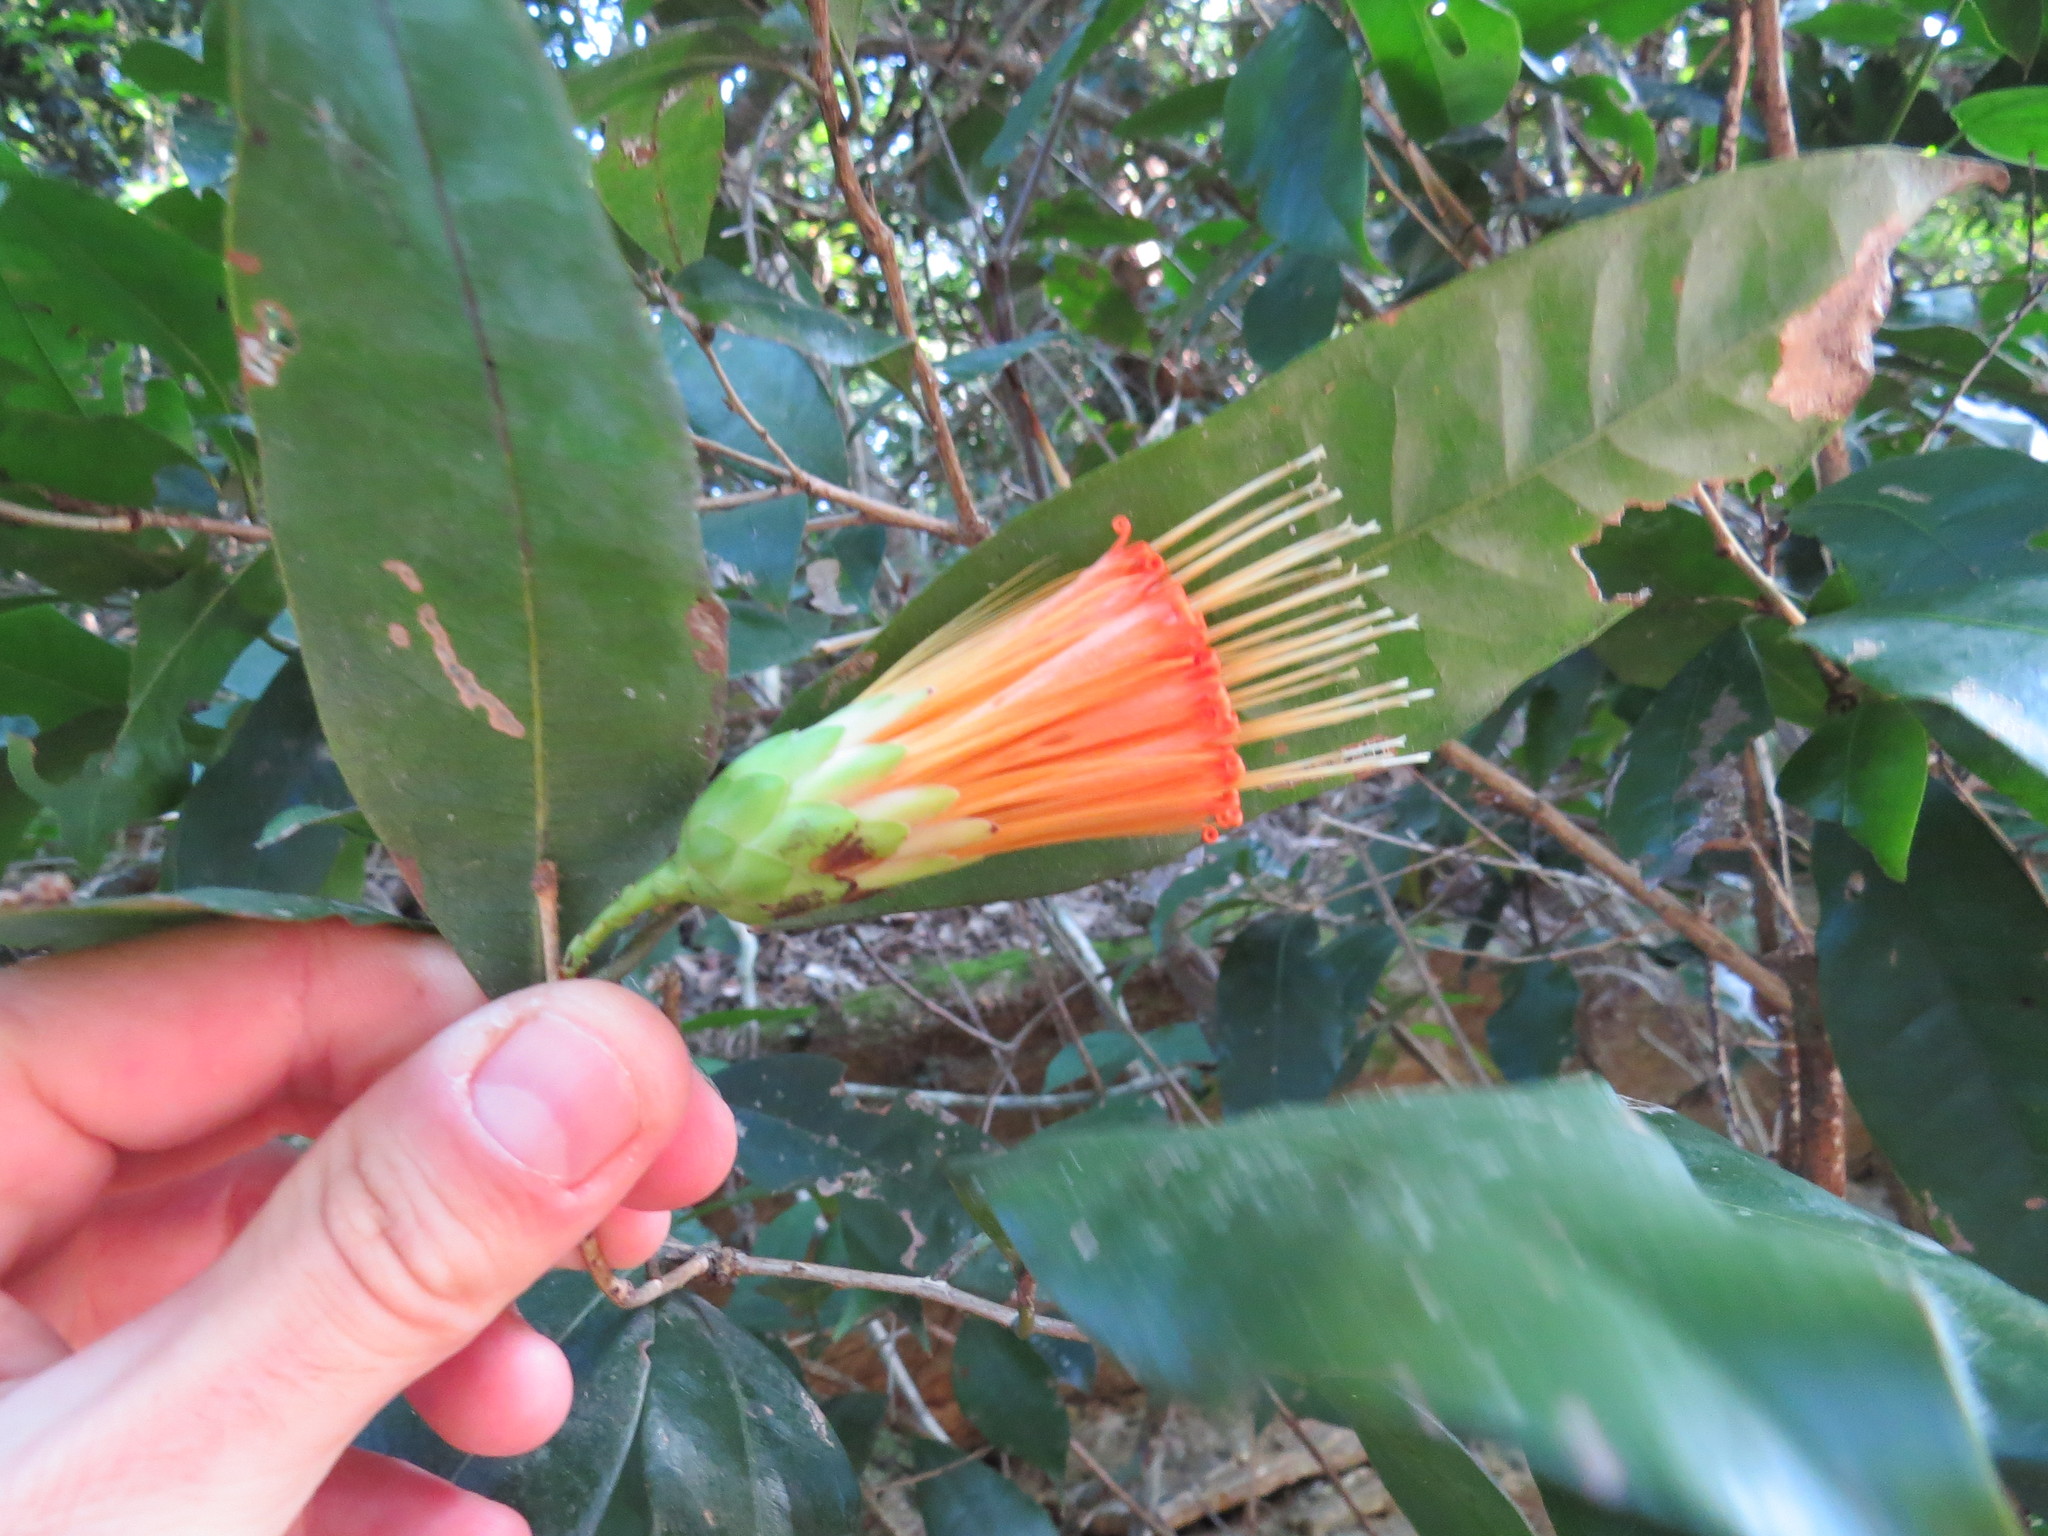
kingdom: Plantae
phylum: Tracheophyta
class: Magnoliopsida
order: Asterales
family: Asteraceae
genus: Stifftia
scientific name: Stifftia chrysantha
